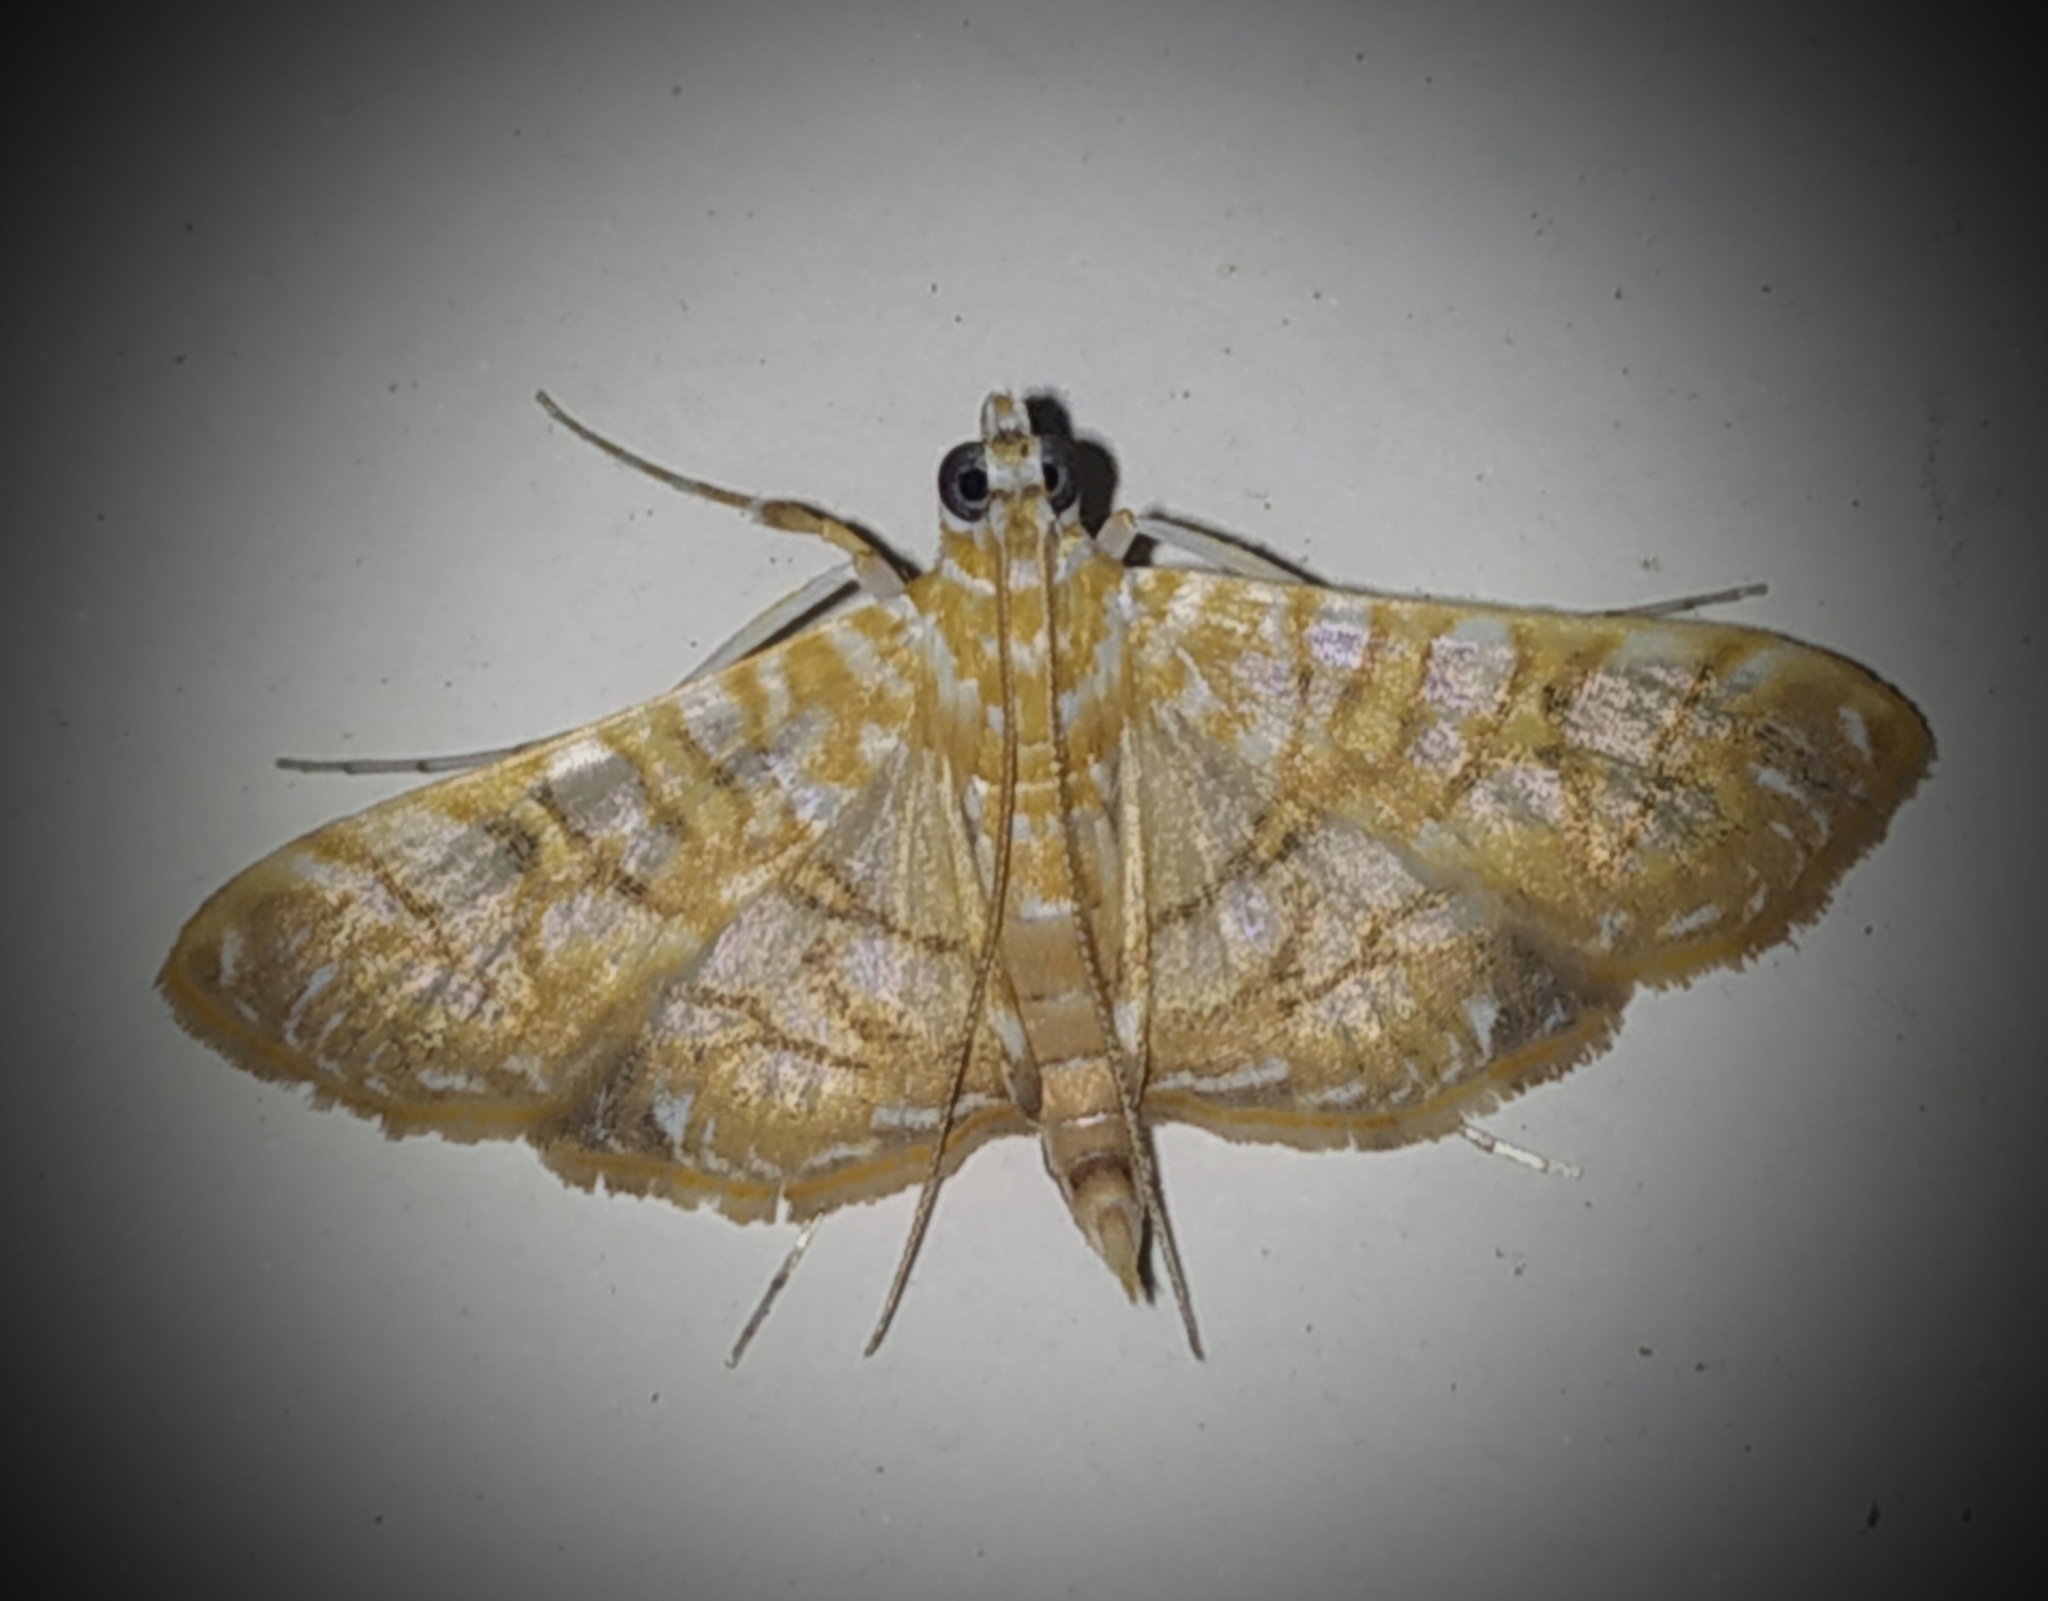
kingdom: Animalia
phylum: Arthropoda
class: Insecta
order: Lepidoptera
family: Crambidae
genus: Synclera
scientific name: Synclera traducalis
